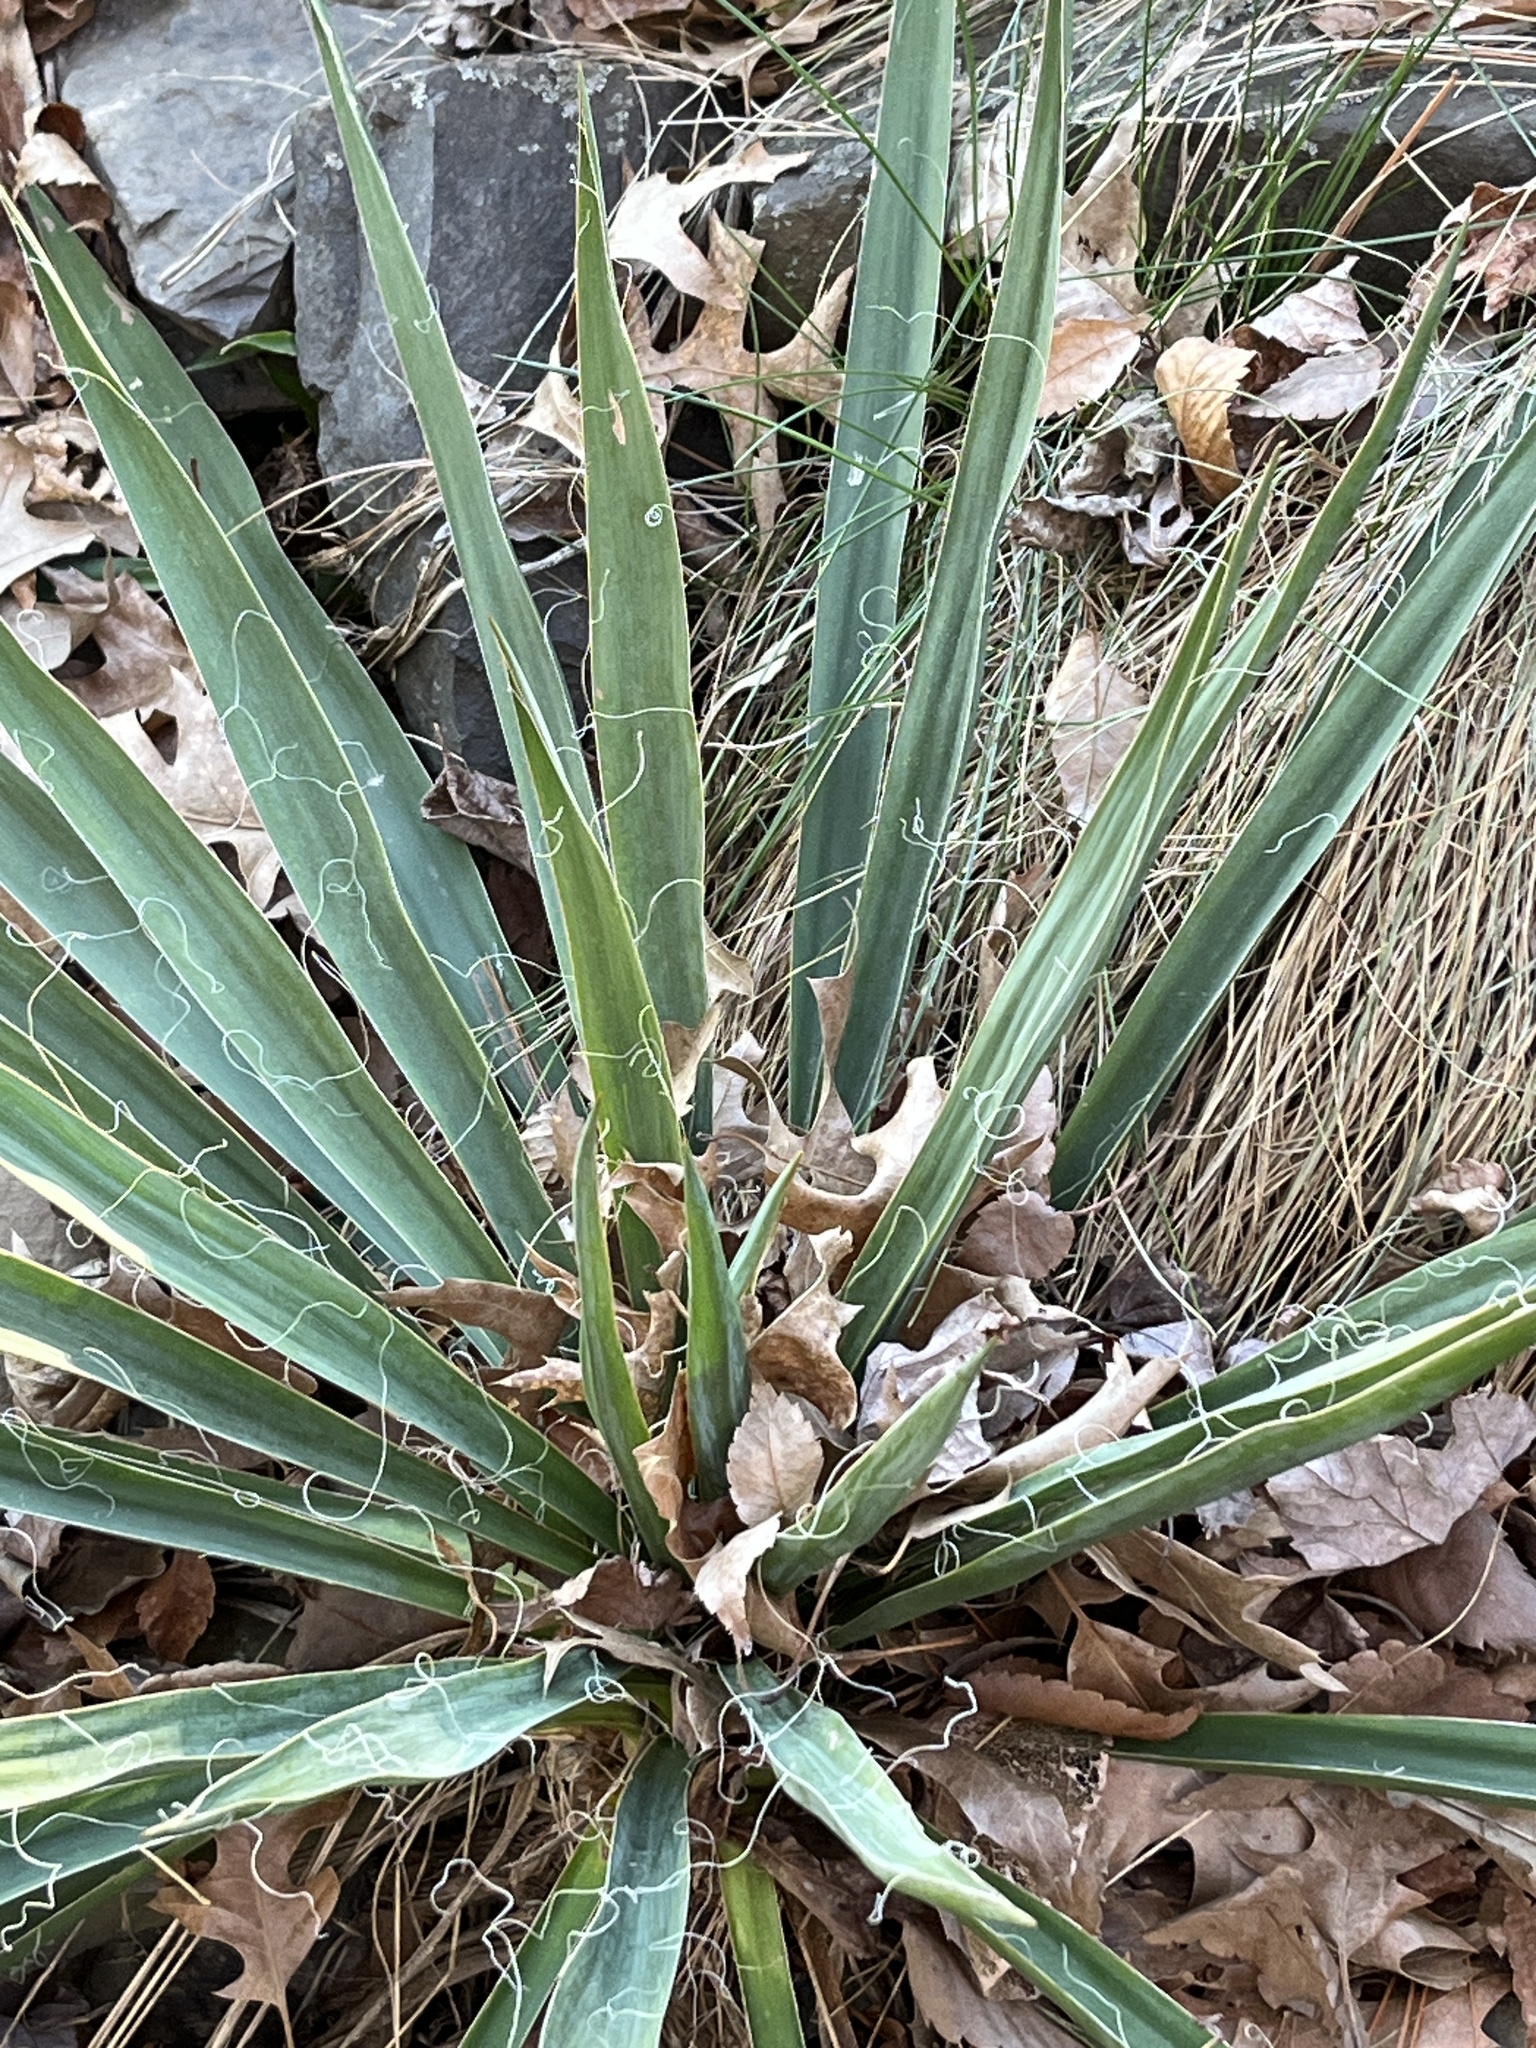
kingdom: Plantae
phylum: Tracheophyta
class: Liliopsida
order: Asparagales
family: Asparagaceae
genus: Yucca
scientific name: Yucca filamentosa
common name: Adam's-needle
